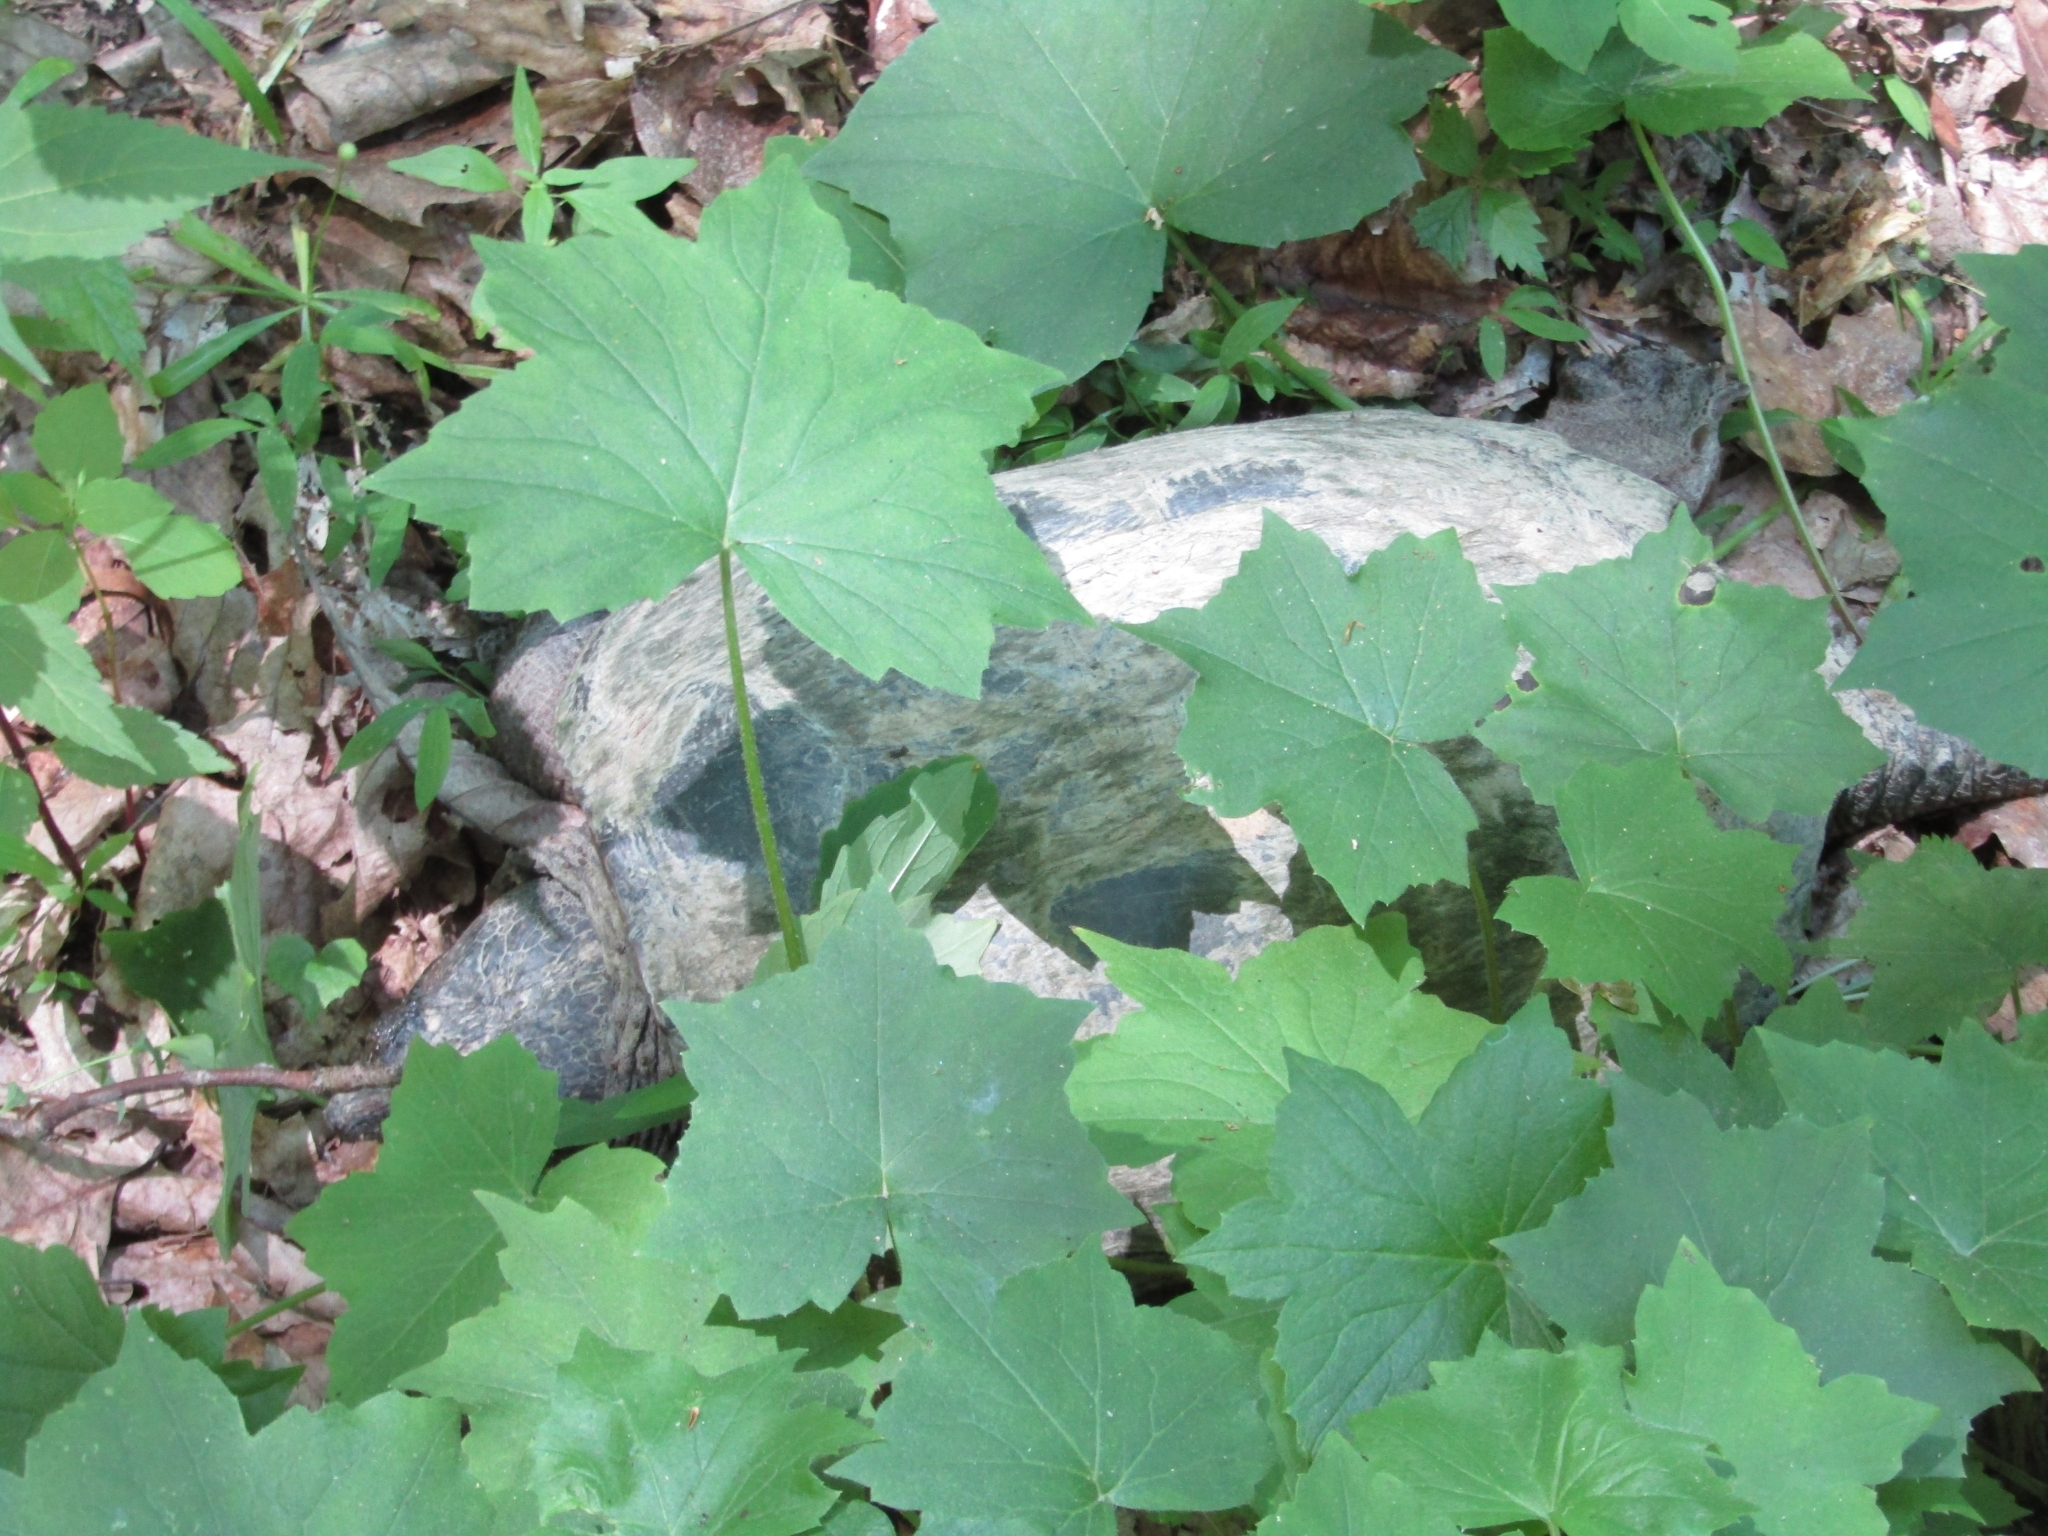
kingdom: Animalia
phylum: Chordata
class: Testudines
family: Chelydridae
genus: Chelydra
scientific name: Chelydra serpentina
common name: Common snapping turtle
